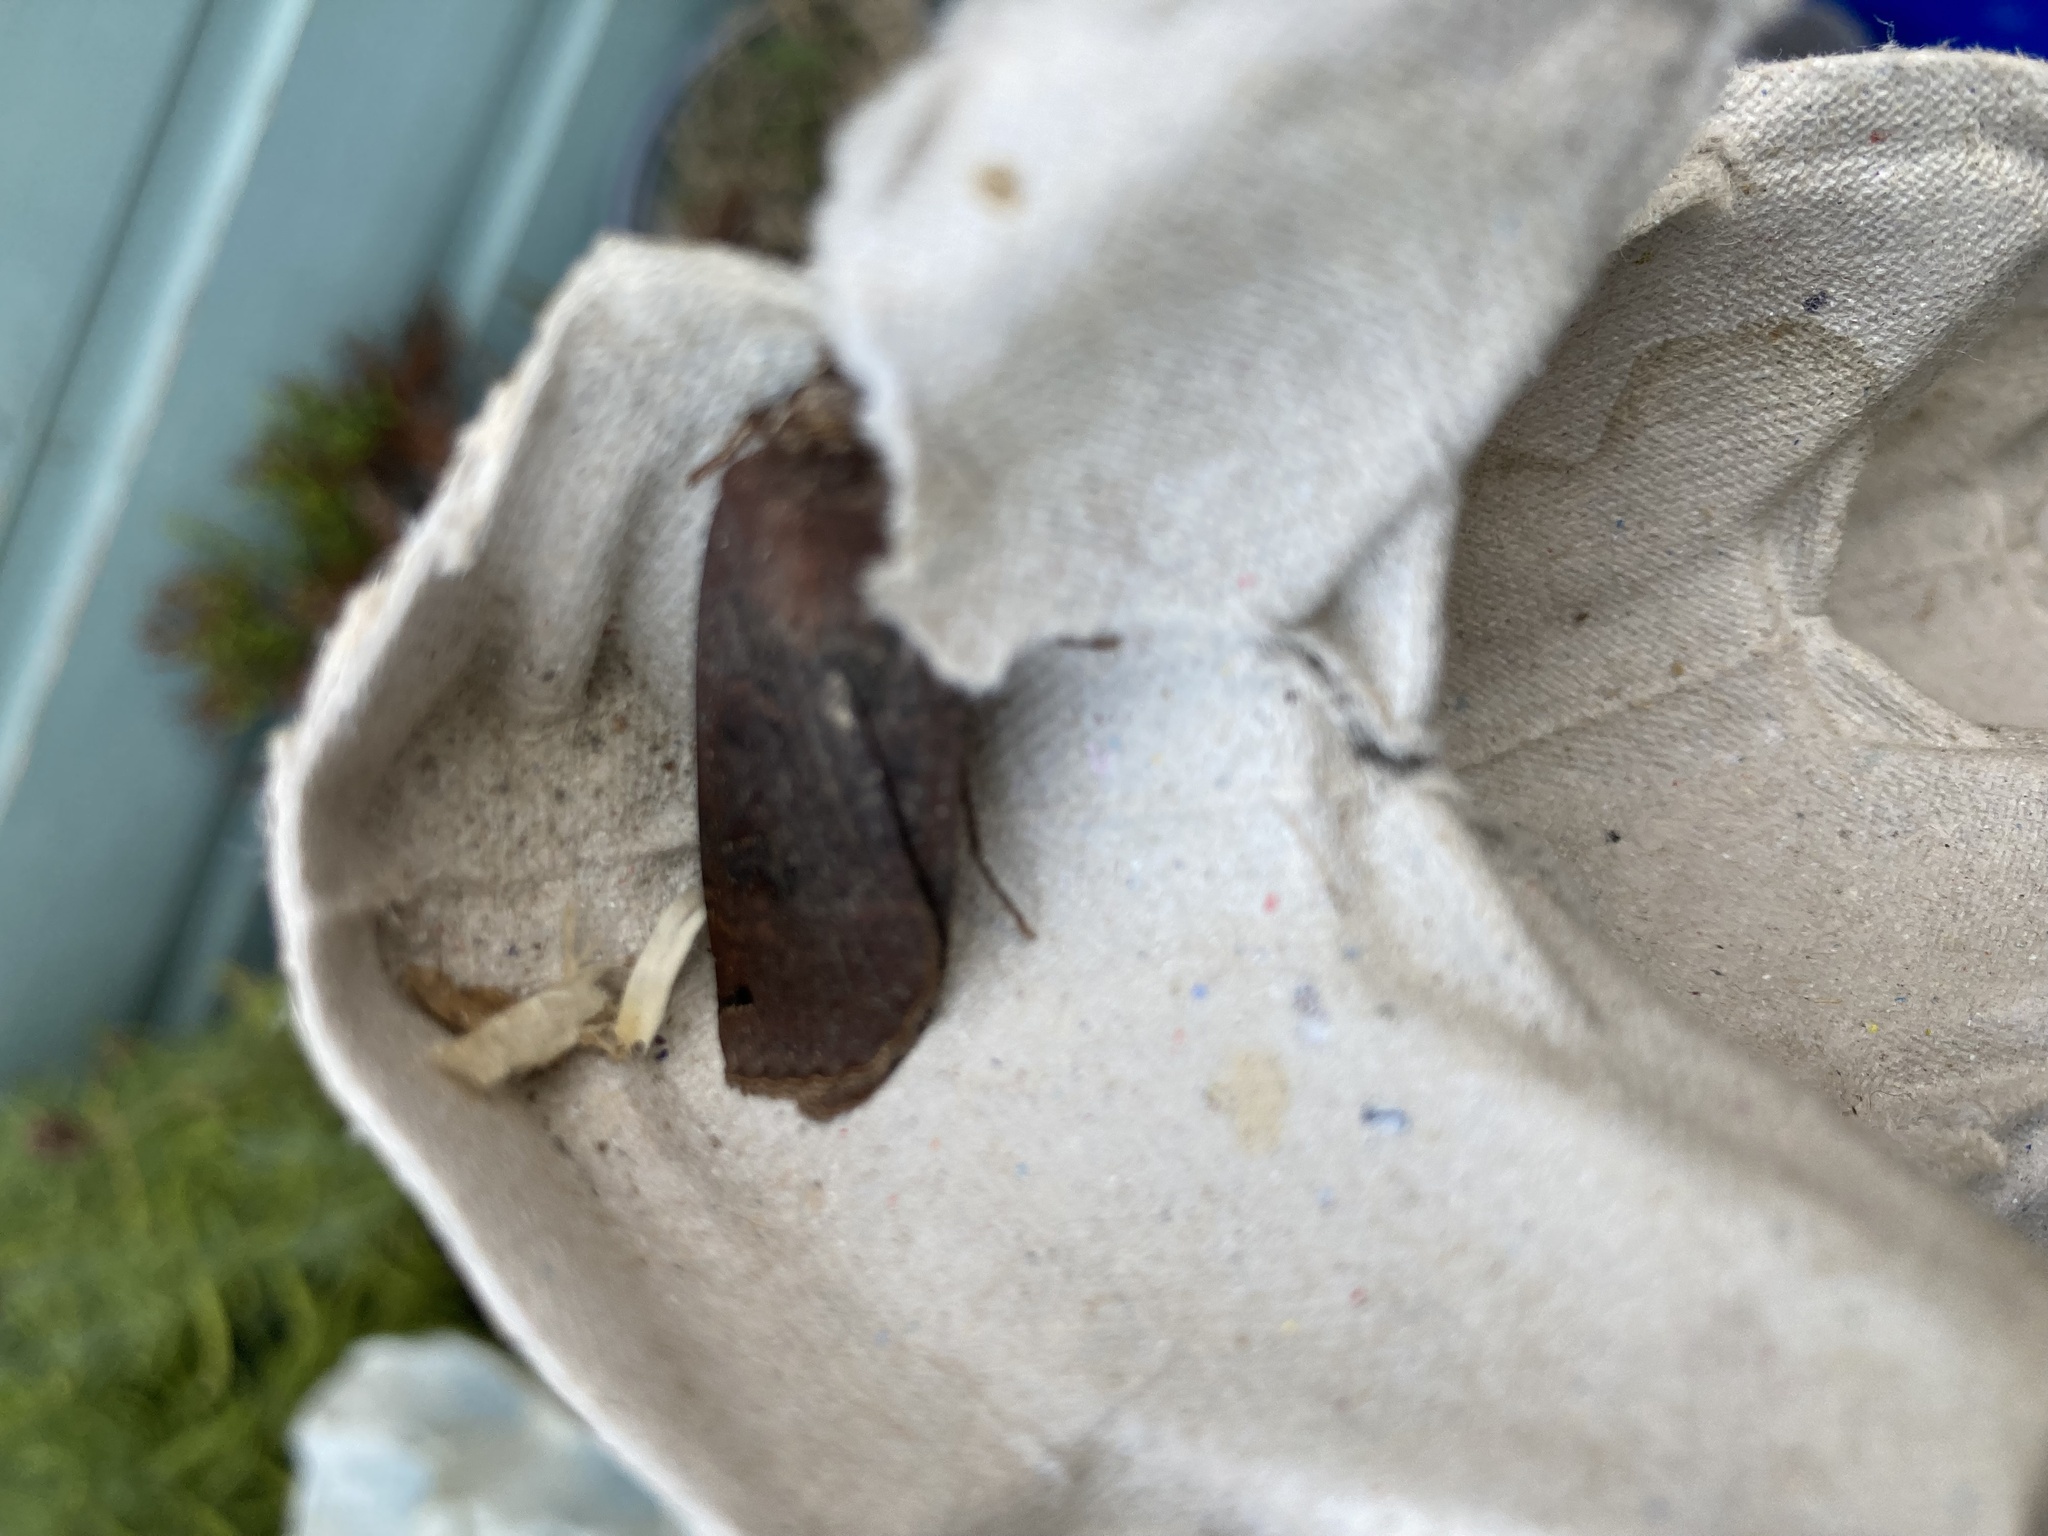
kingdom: Animalia
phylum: Arthropoda
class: Insecta
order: Lepidoptera
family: Noctuidae
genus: Noctua
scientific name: Noctua pronuba
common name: Large yellow underwing
